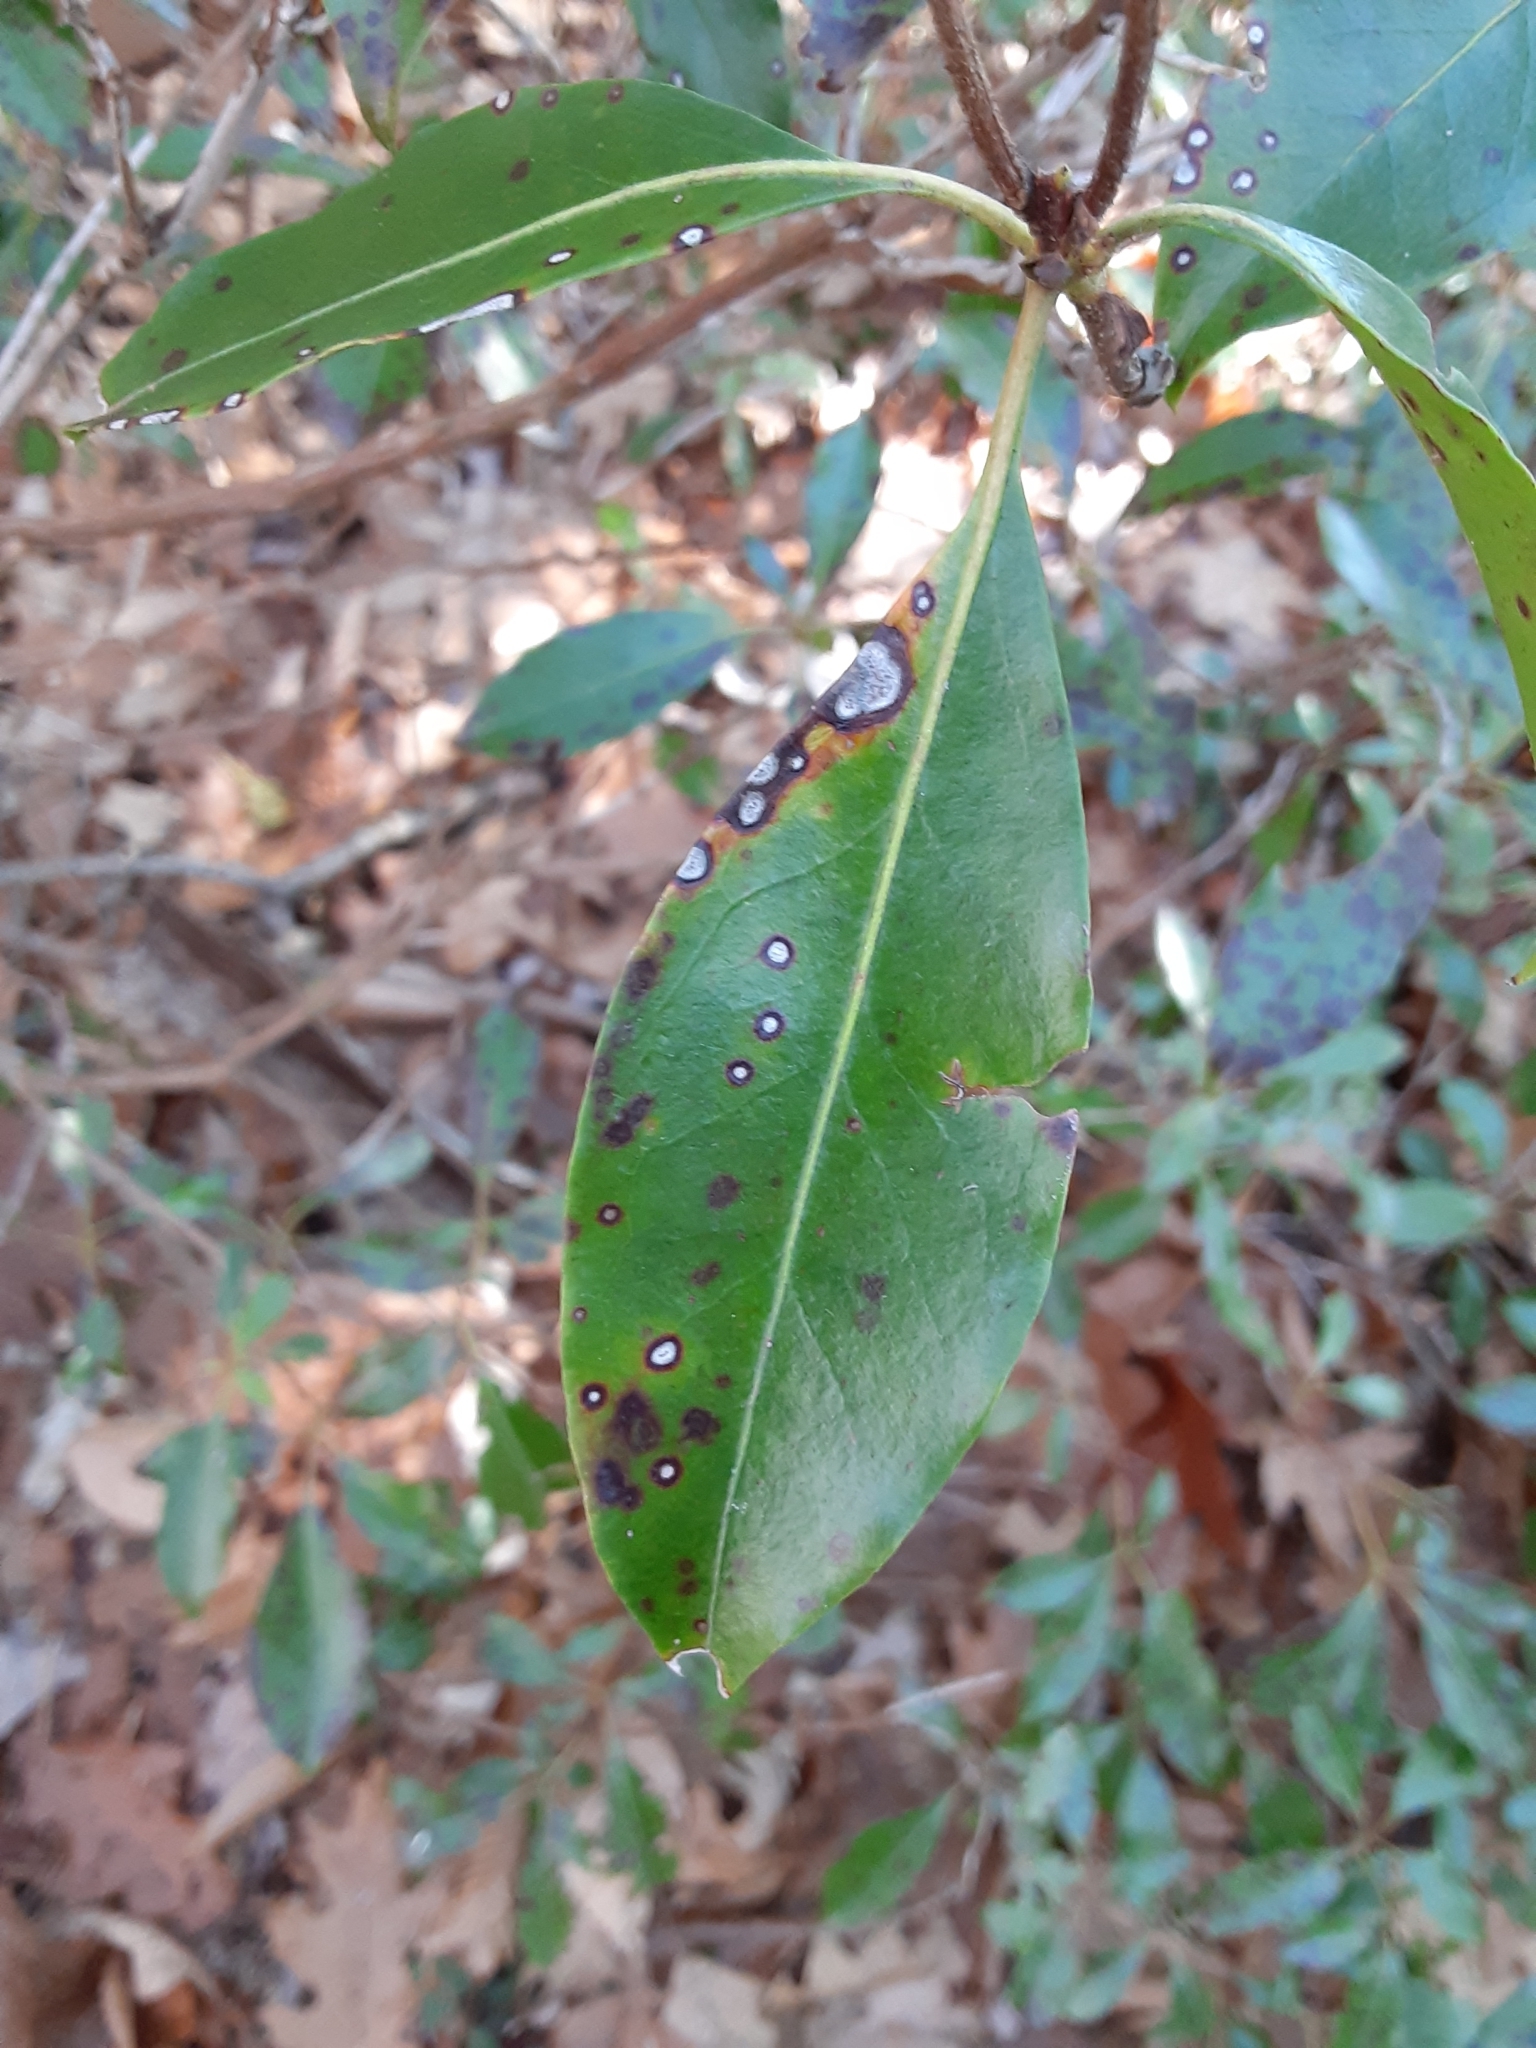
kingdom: Fungi
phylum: Ascomycota
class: Dothideomycetes
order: Mycosphaerellales
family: Mycosphaerellaceae
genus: Mycosphaerella
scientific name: Mycosphaerella colorata
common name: Mountain laurel leaf spot
